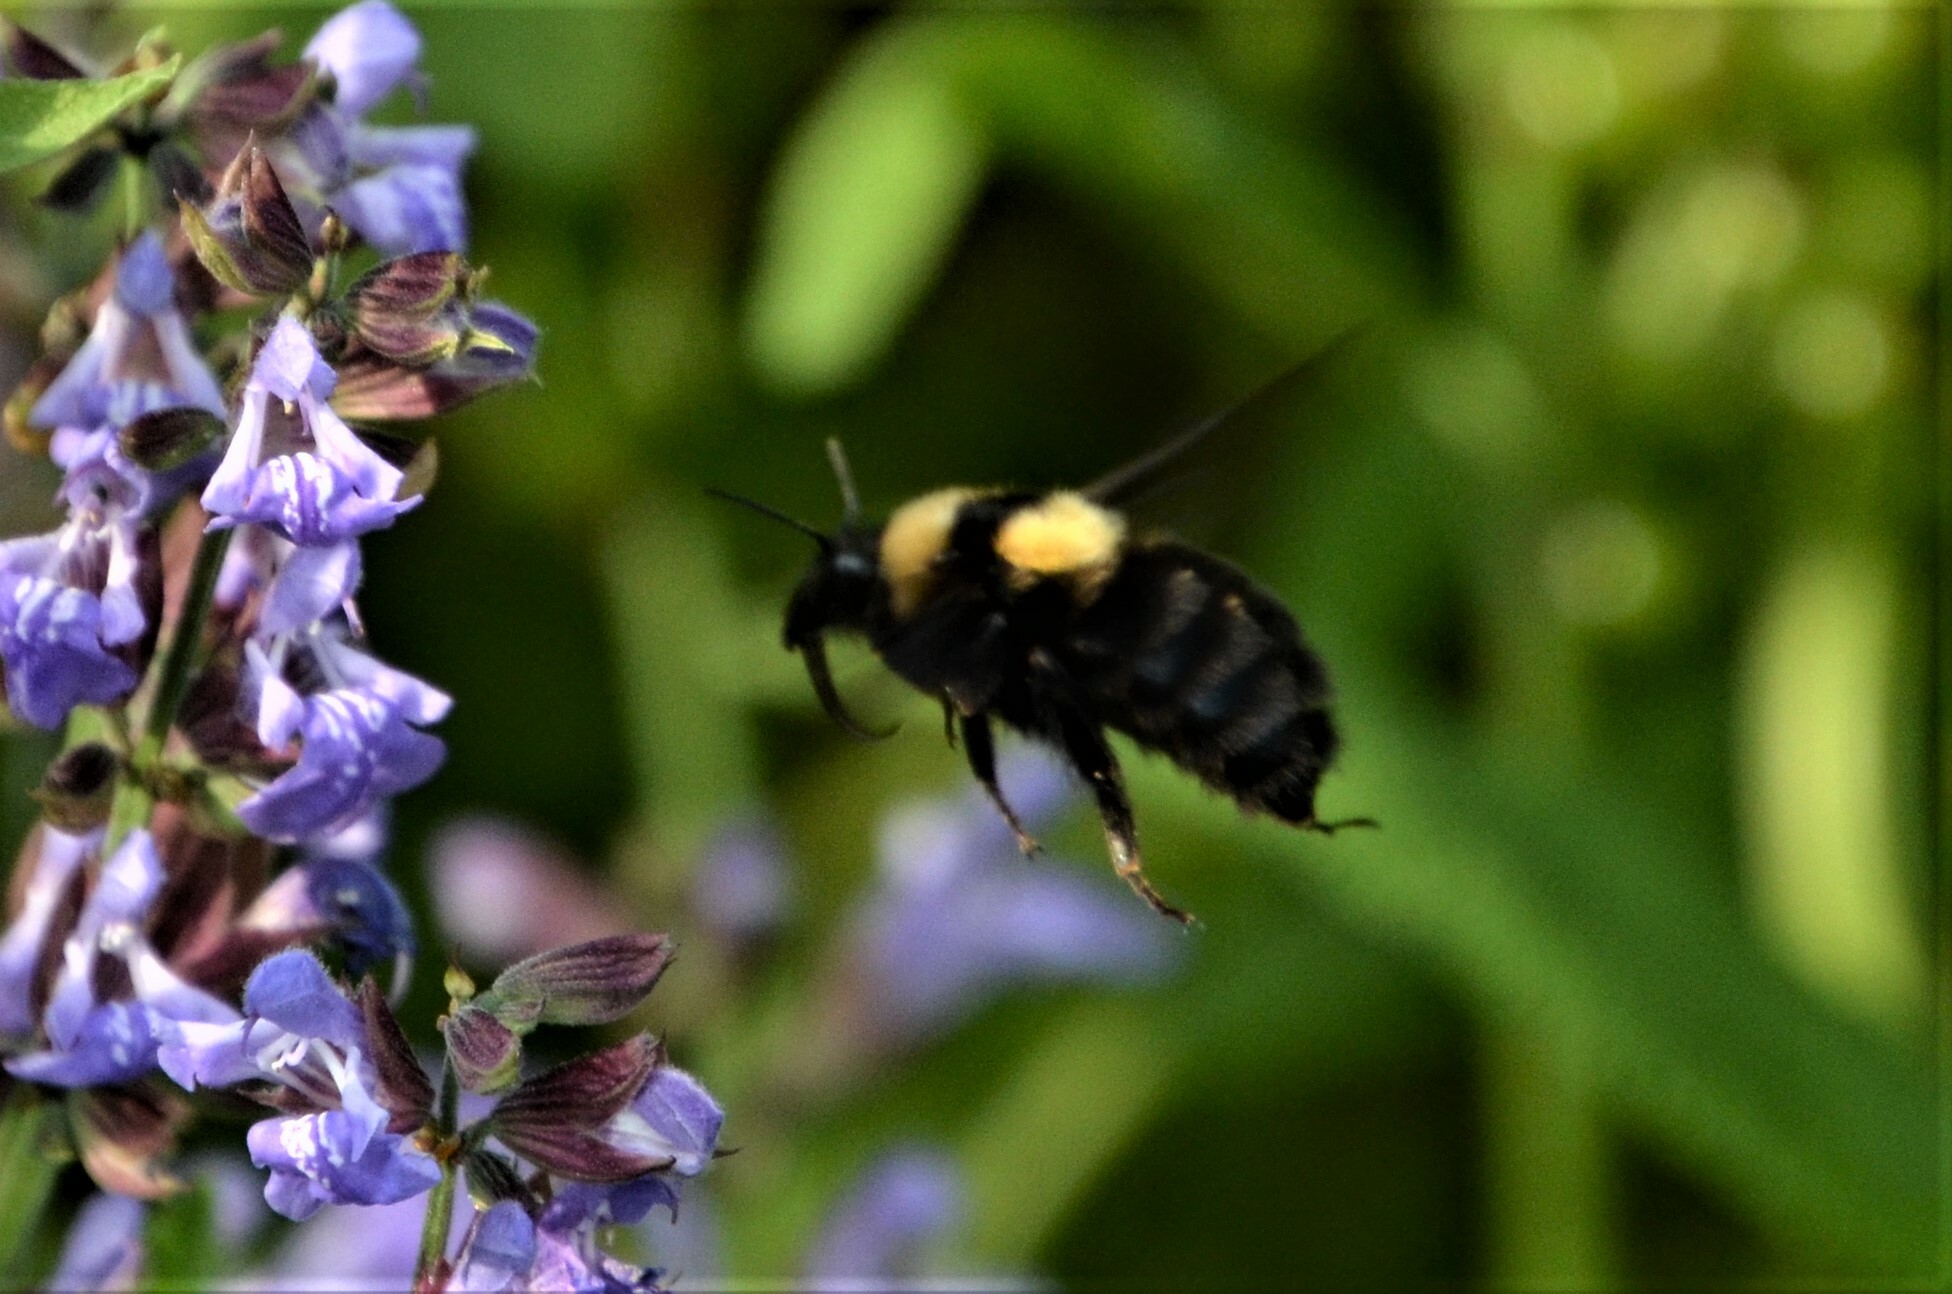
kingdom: Animalia
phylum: Arthropoda
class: Insecta
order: Hymenoptera
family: Apidae
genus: Bombus
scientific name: Bombus argillaceus
